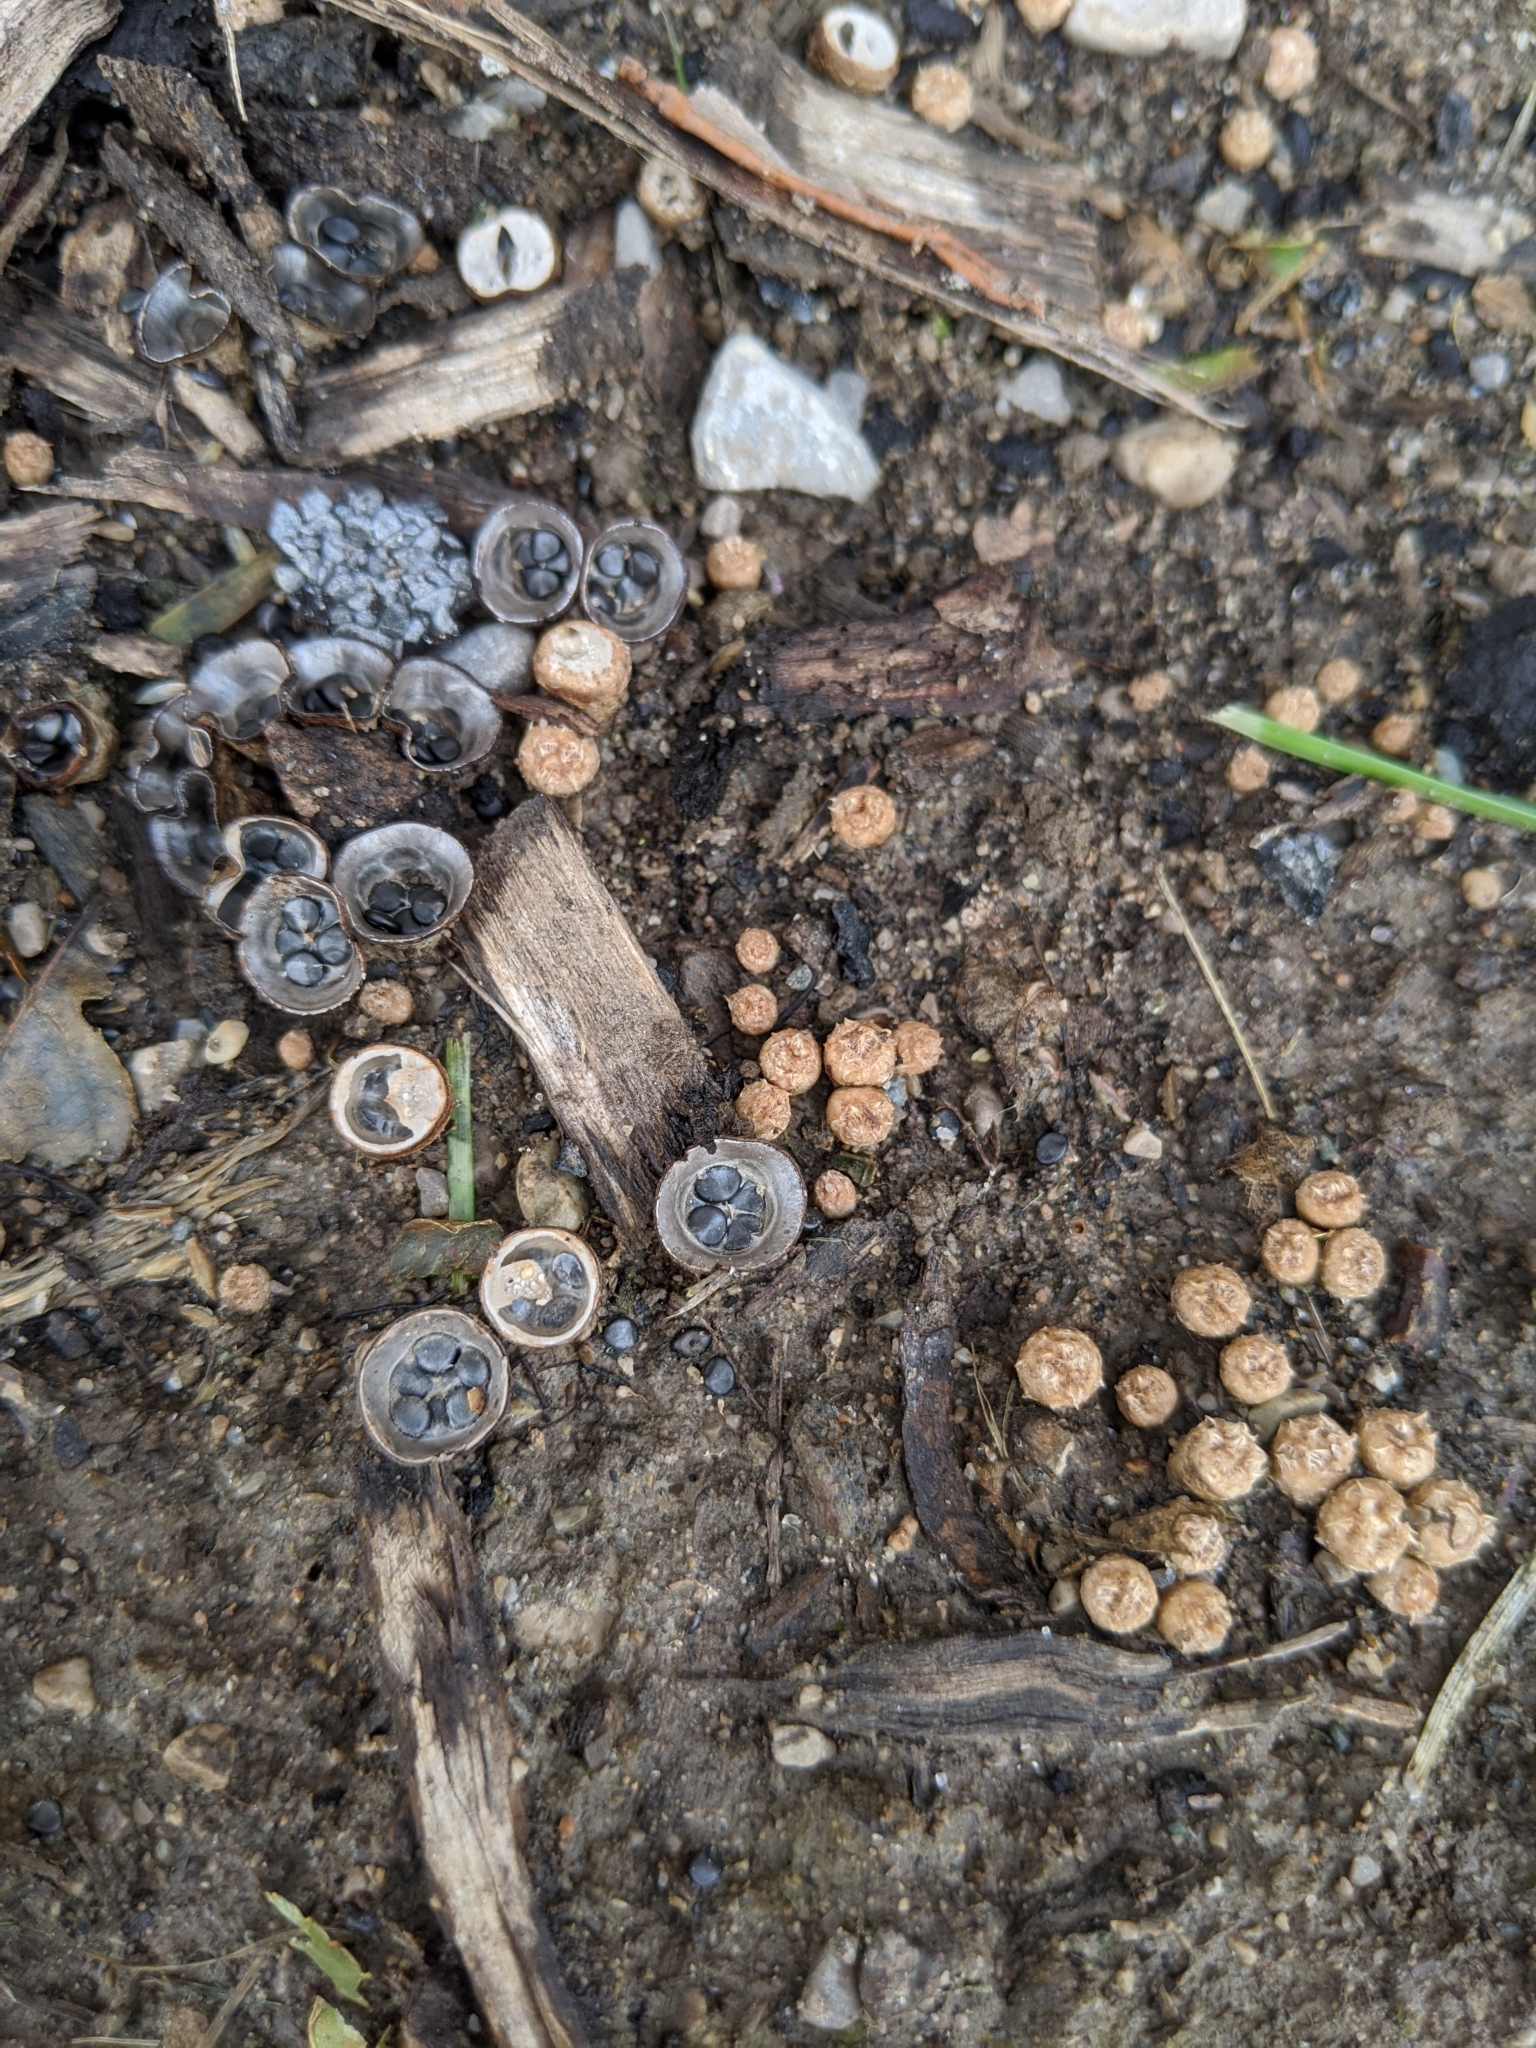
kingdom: Fungi
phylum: Basidiomycota
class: Agaricomycetes
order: Agaricales
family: Agaricaceae
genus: Cyathus
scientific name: Cyathus stercoreus
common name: Dung bird's nest
